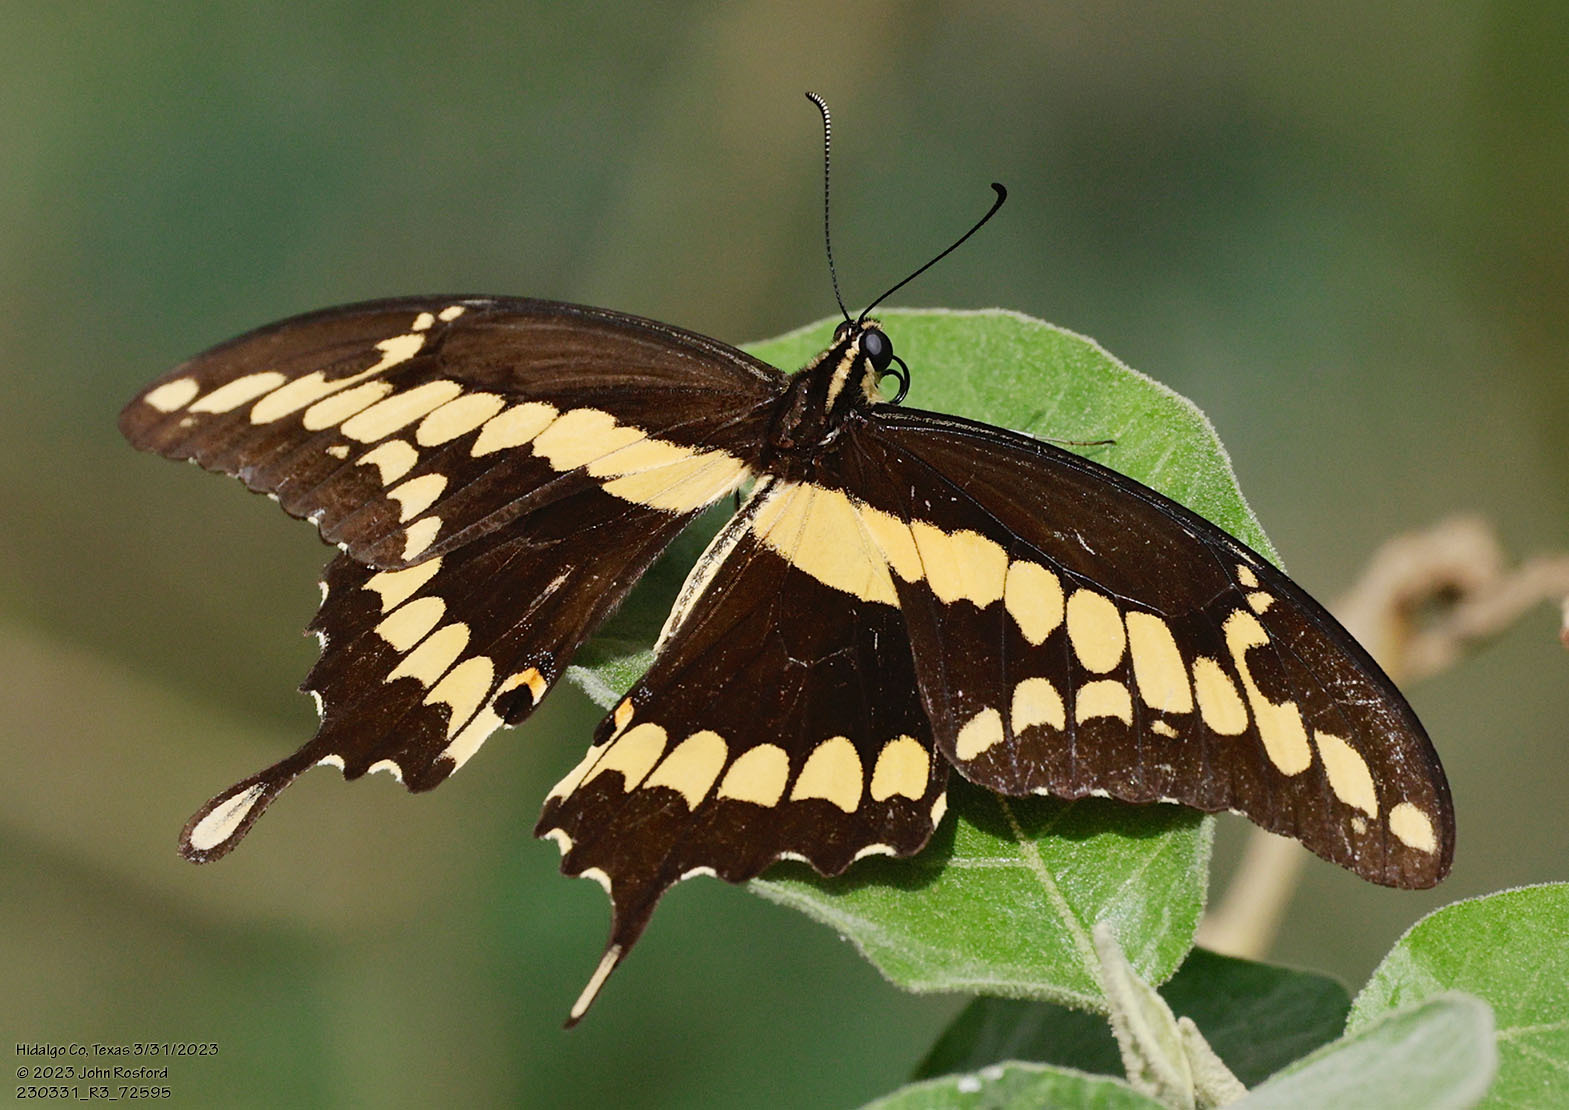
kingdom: Animalia
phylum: Arthropoda
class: Insecta
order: Lepidoptera
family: Papilionidae
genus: Papilio
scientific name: Papilio rumiko
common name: Western giant swallowtail
